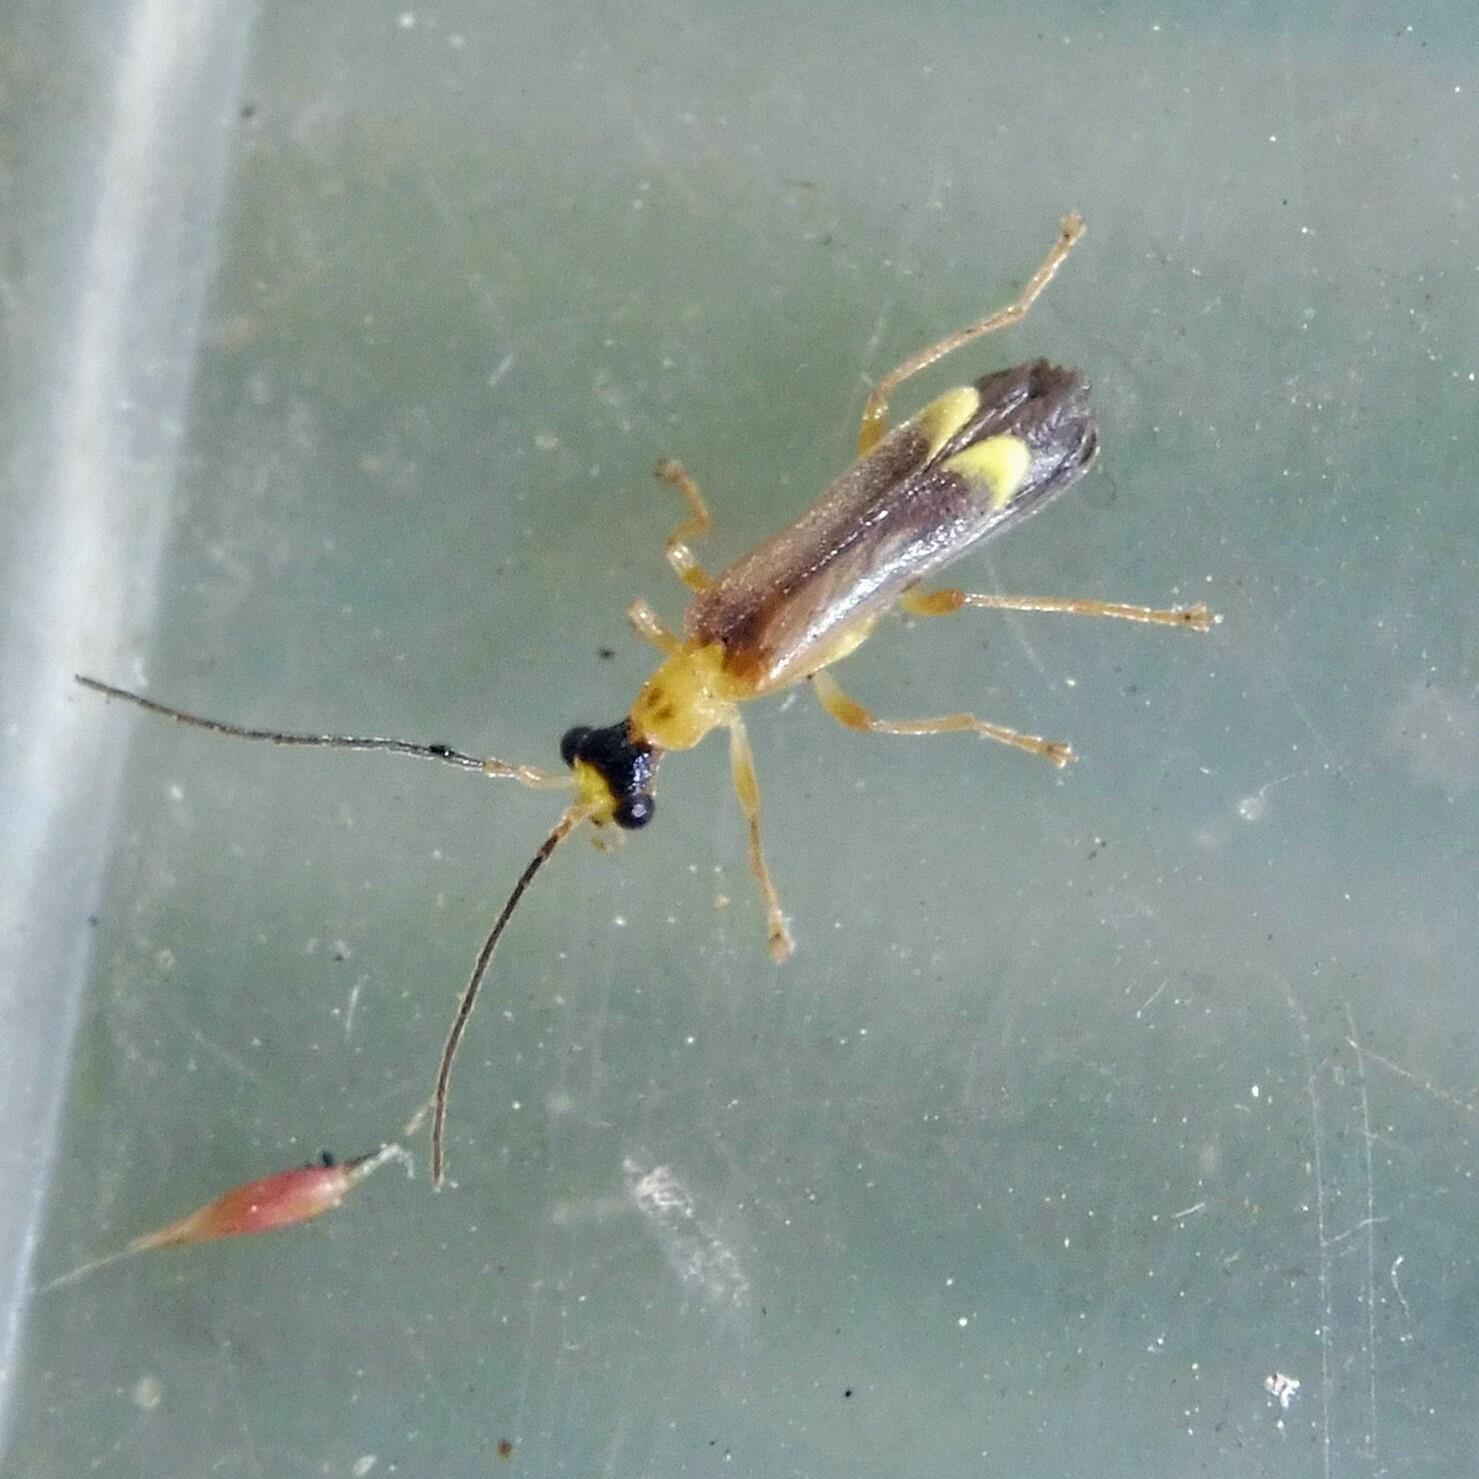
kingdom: Animalia
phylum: Arthropoda
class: Insecta
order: Coleoptera
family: Cantharidae
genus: Malthinus
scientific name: Malthinus flaveolus
